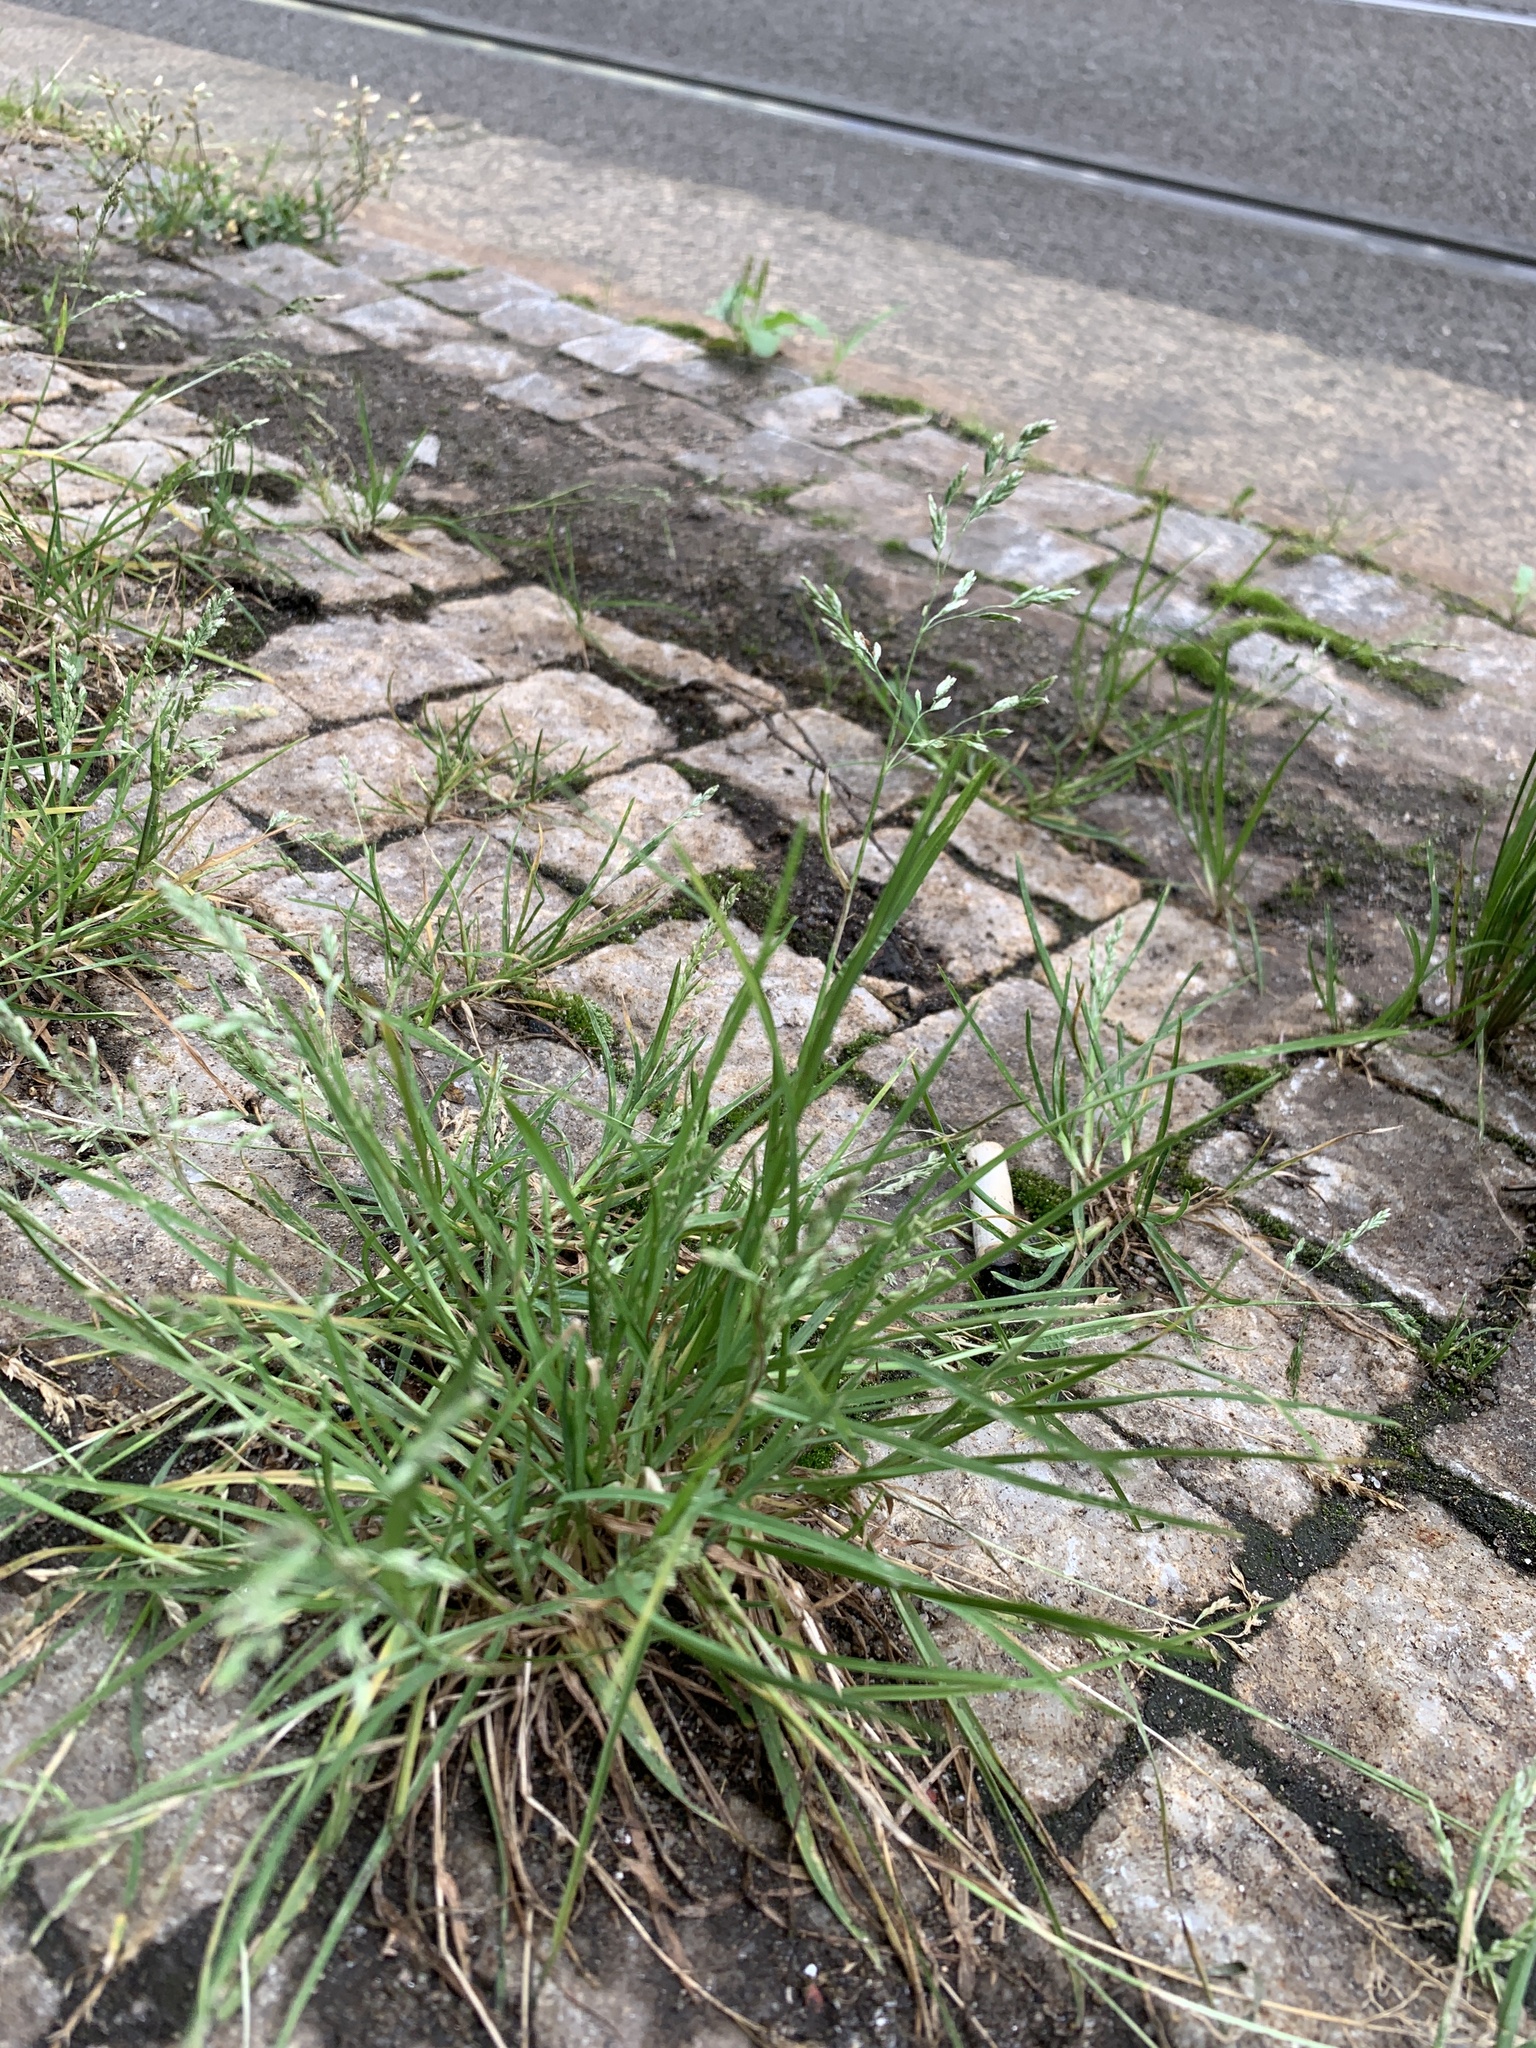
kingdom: Plantae
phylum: Tracheophyta
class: Liliopsida
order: Poales
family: Poaceae
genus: Poa
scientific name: Poa annua
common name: Annual bluegrass
